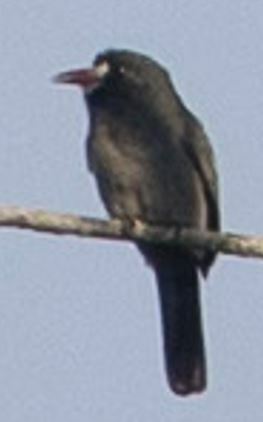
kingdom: Animalia
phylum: Chordata
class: Aves
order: Piciformes
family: Bucconidae
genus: Monasa
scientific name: Monasa morphoeus
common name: White-fronted nunbird
